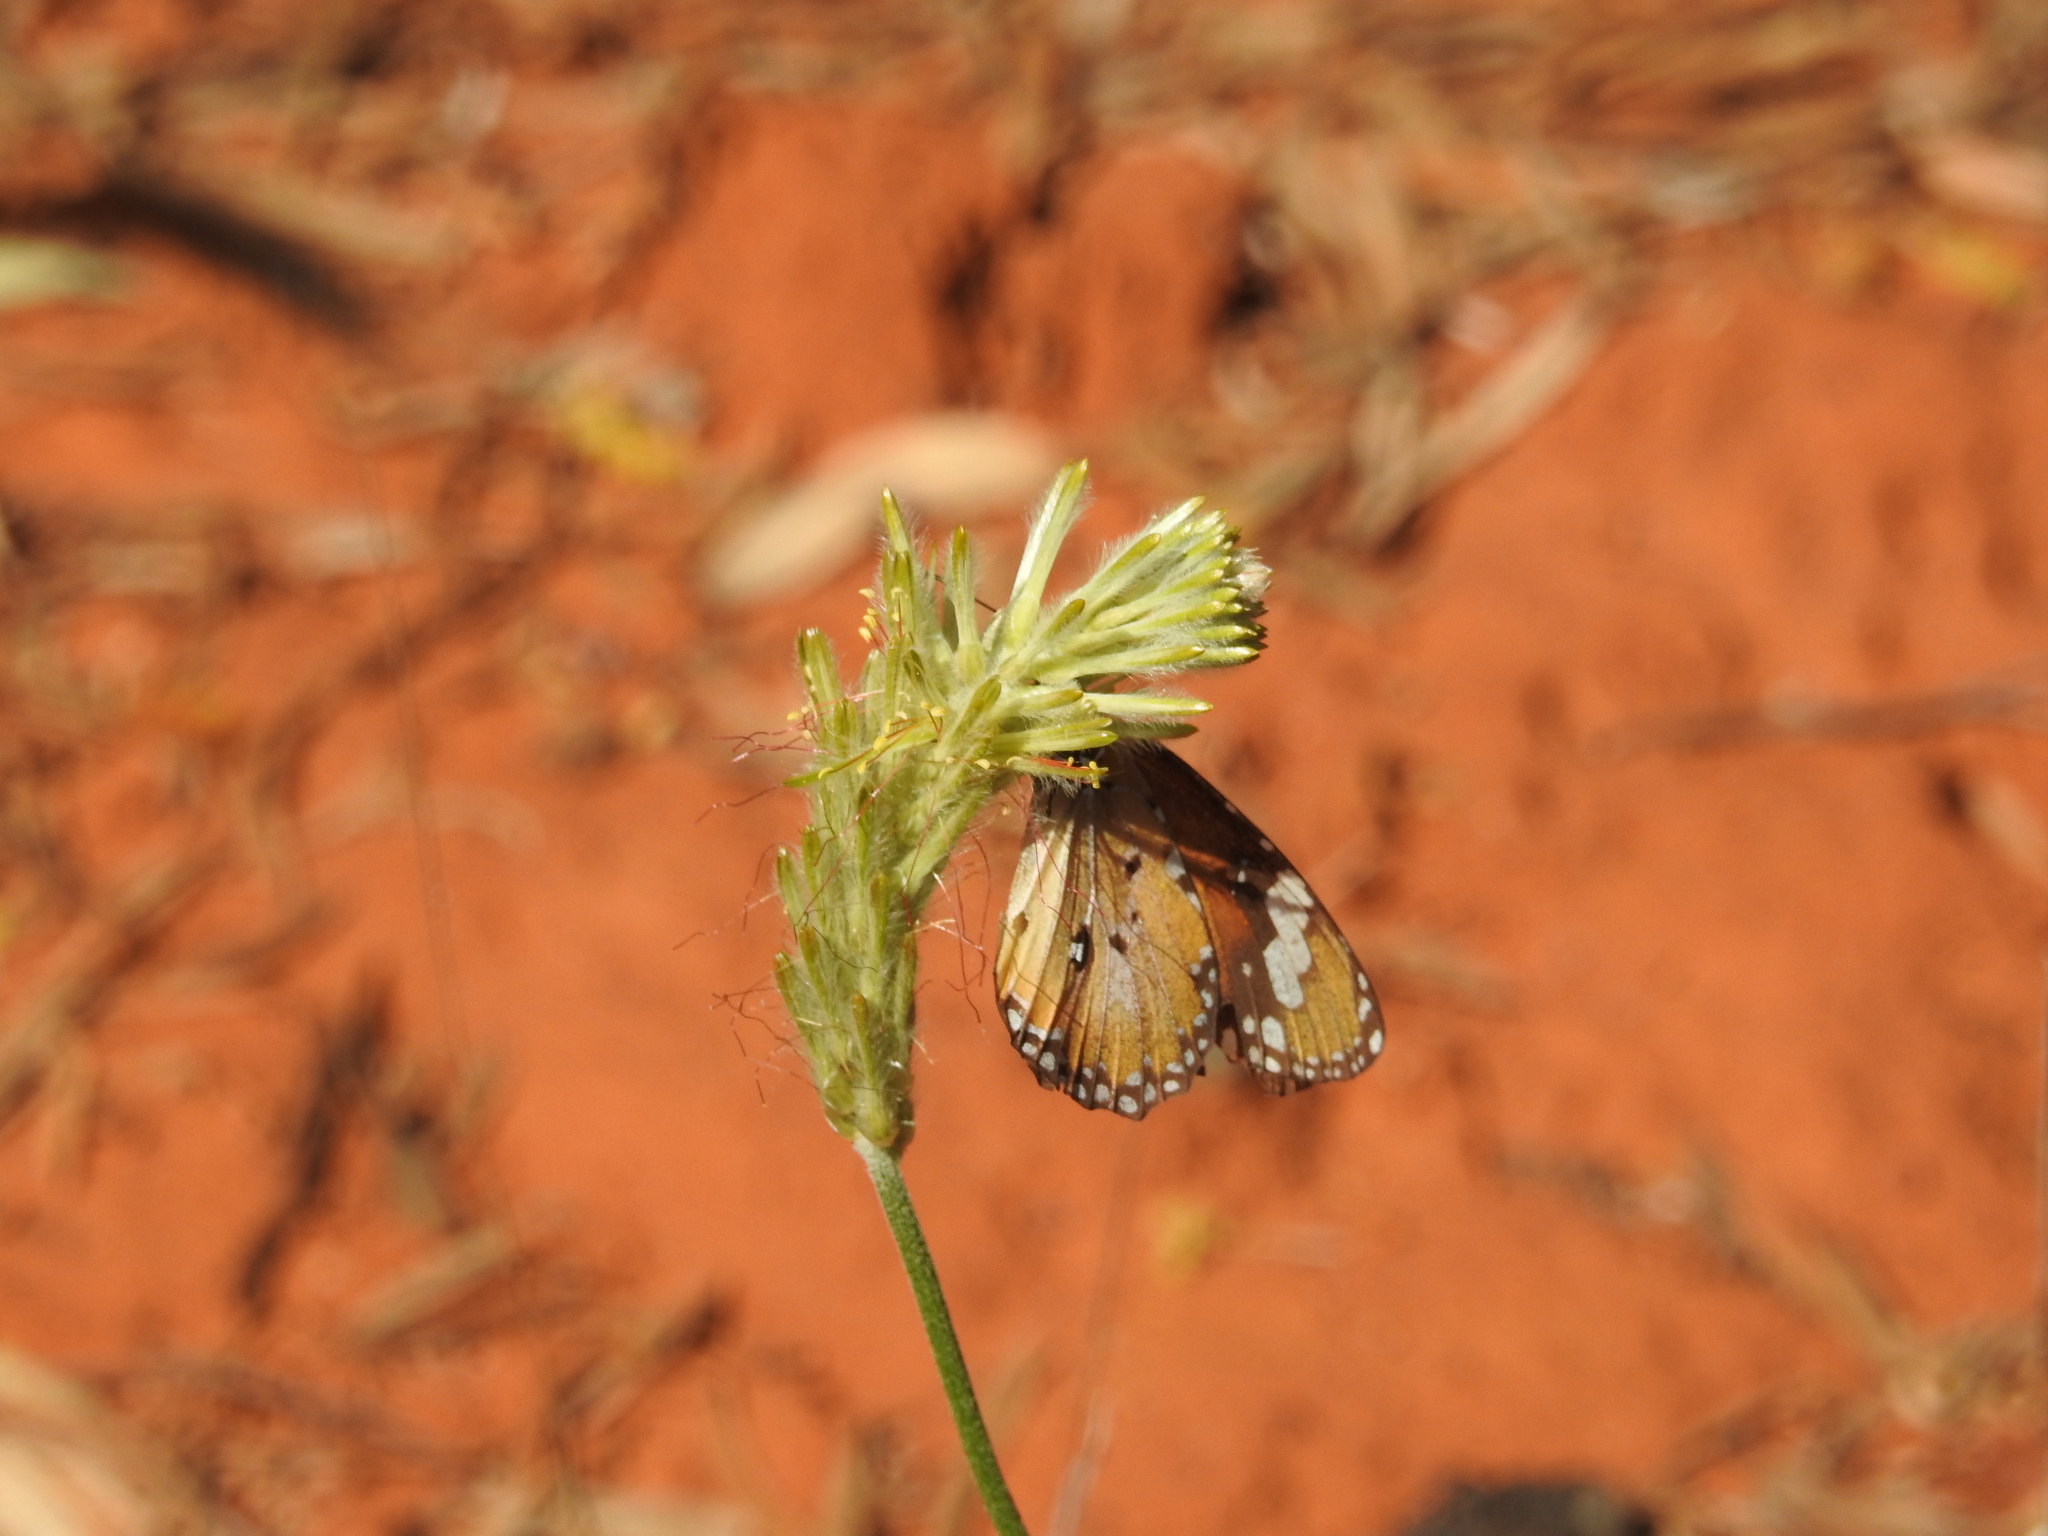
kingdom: Animalia
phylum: Arthropoda
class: Insecta
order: Lepidoptera
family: Nymphalidae
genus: Danaus
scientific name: Danaus chrysippus
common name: Plain tiger
